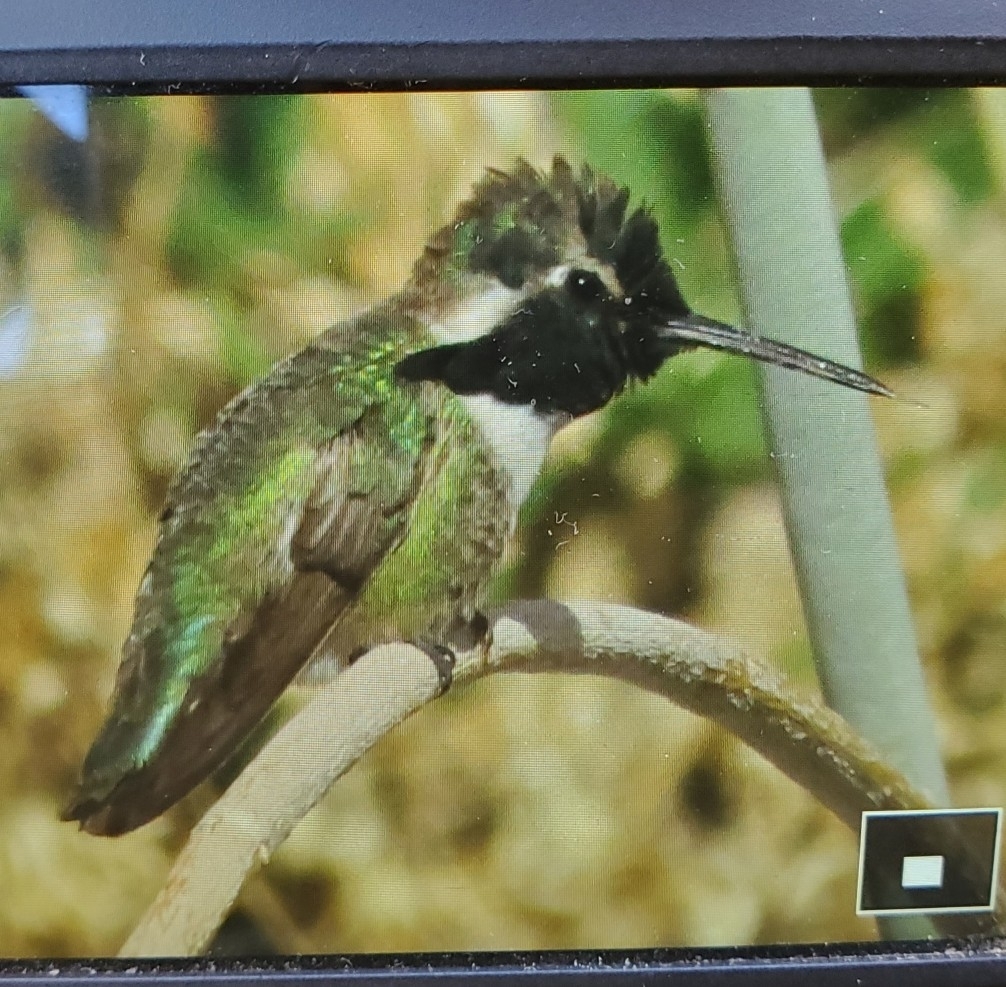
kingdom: Animalia
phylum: Chordata
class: Aves
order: Apodiformes
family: Trochilidae
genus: Calypte
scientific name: Calypte costae
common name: Costa's hummingbird
